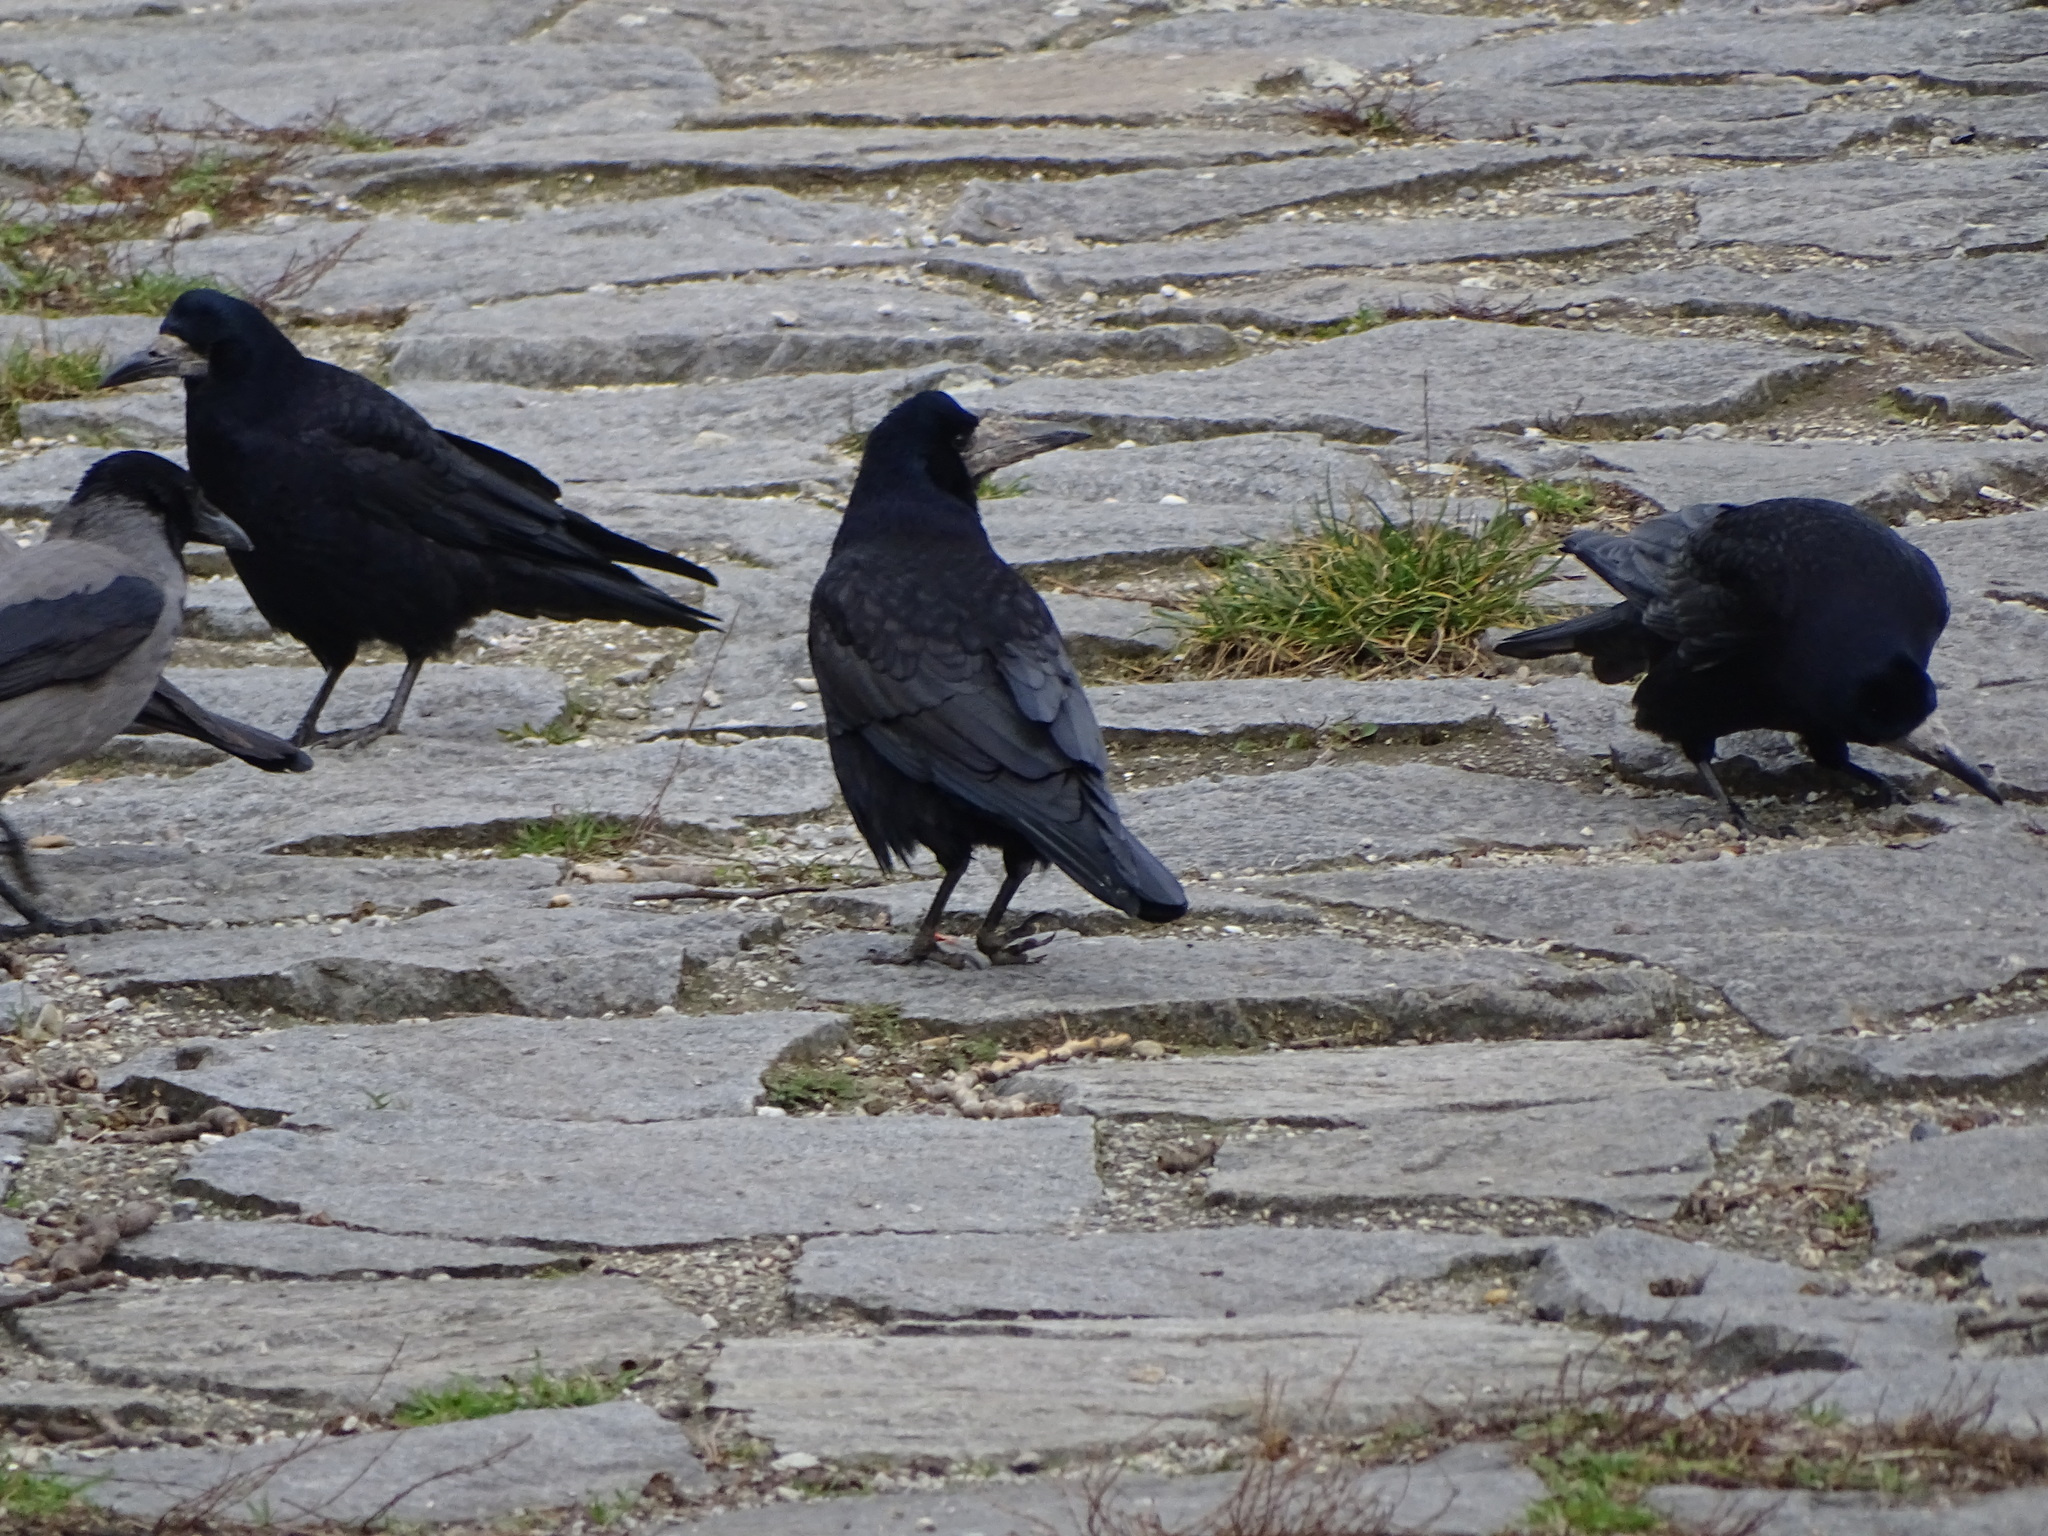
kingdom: Animalia
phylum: Chordata
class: Aves
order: Passeriformes
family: Corvidae
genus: Corvus
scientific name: Corvus frugilegus
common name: Rook
